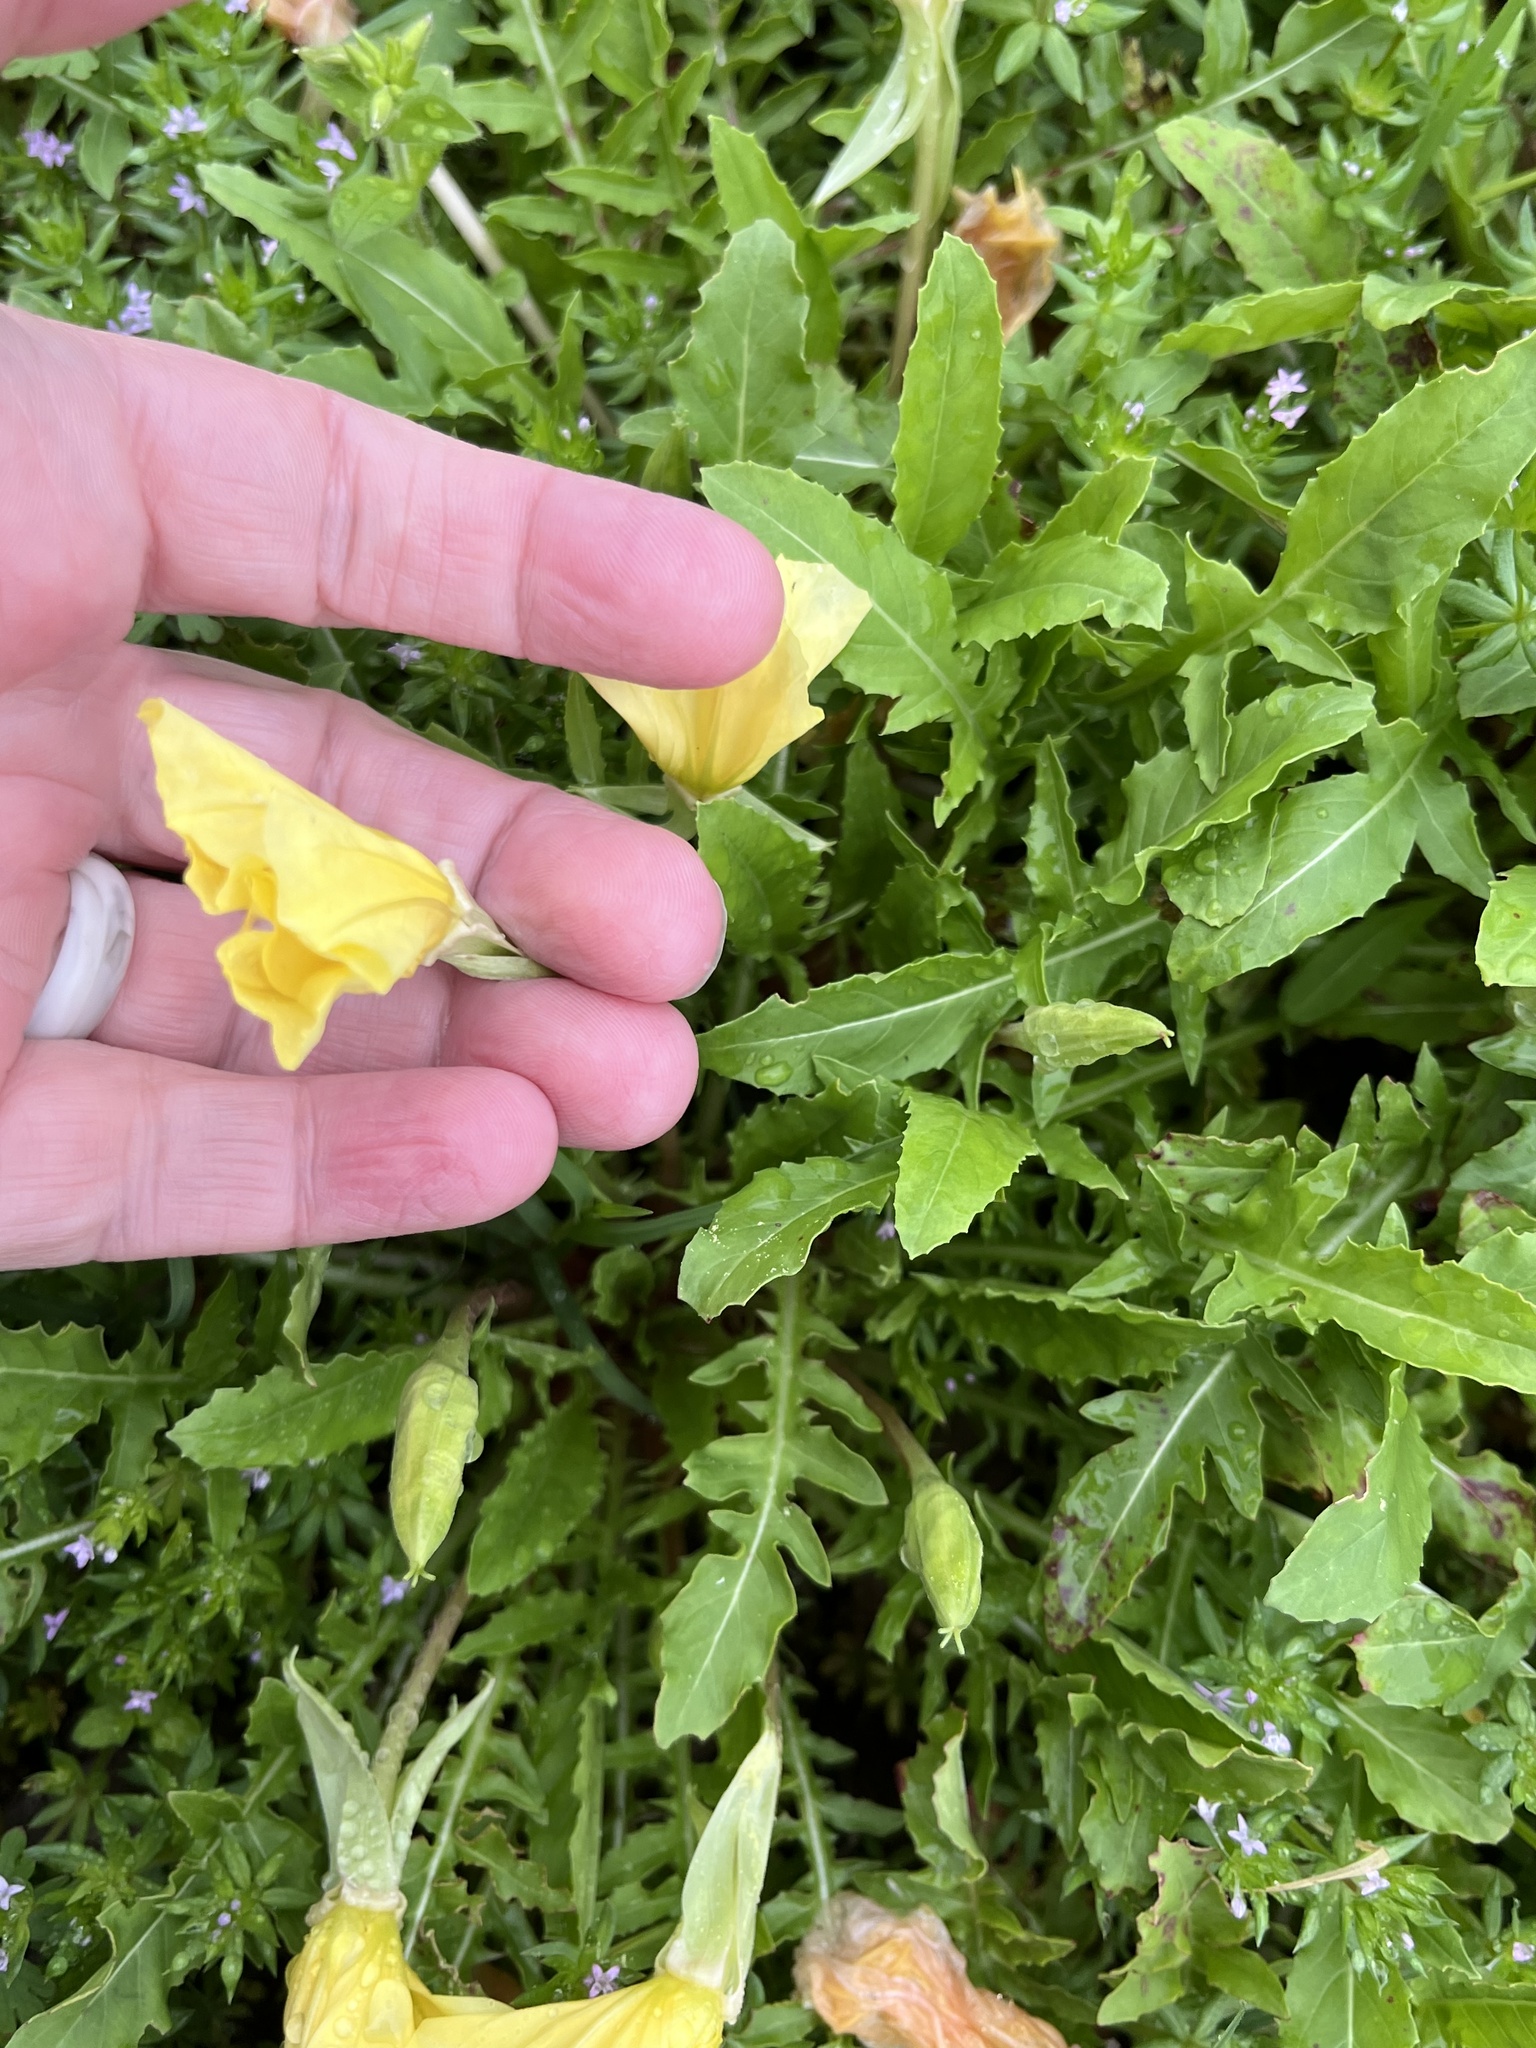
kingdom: Plantae
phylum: Tracheophyta
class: Magnoliopsida
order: Myrtales
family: Onagraceae
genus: Oenothera
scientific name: Oenothera triloba
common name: Sessile evening-primrose
